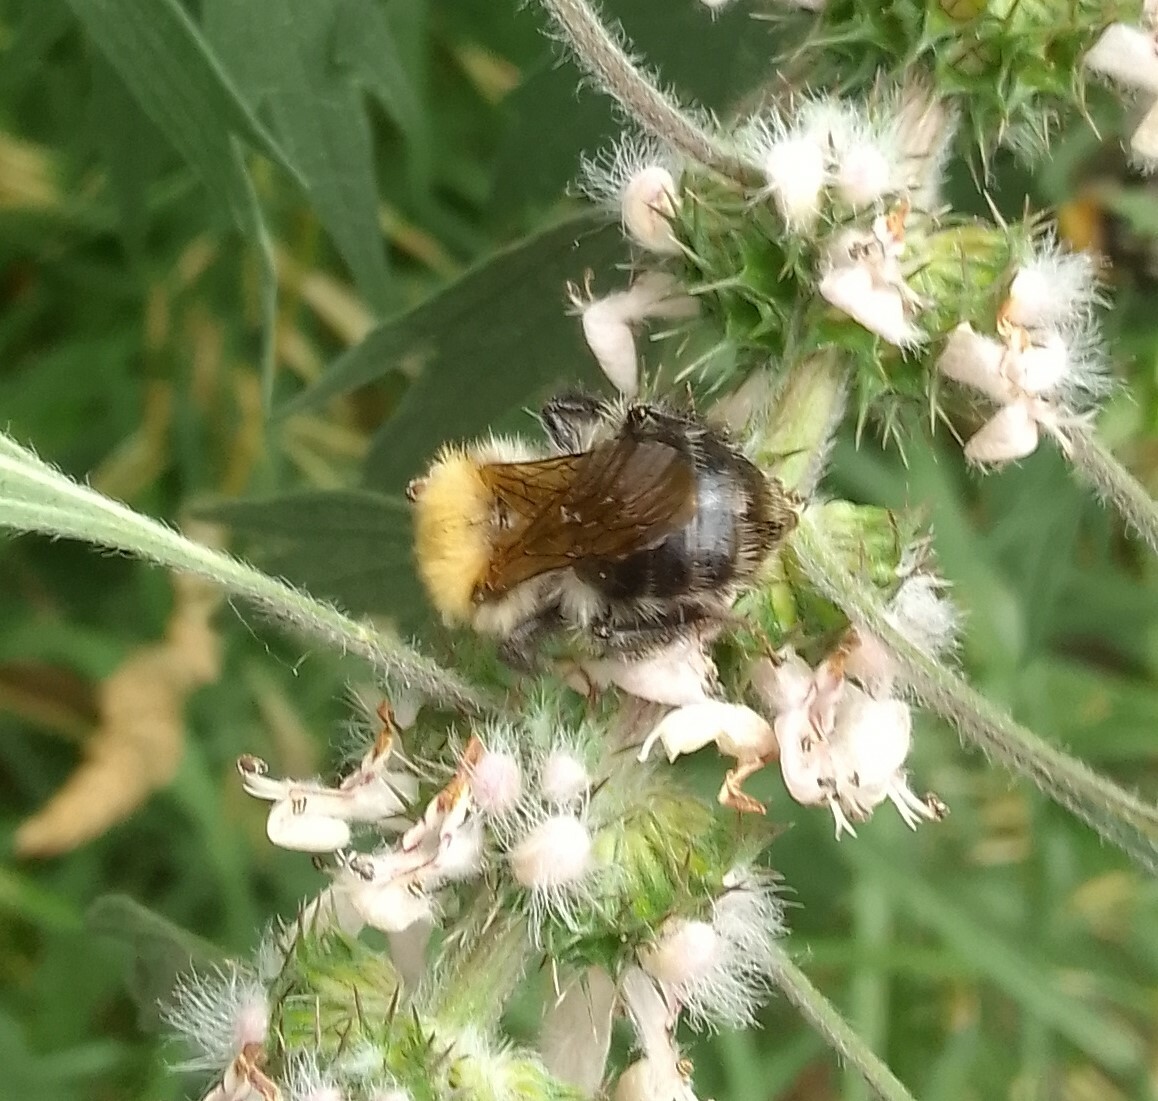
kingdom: Animalia
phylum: Arthropoda
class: Insecta
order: Hymenoptera
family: Apidae
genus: Bombus
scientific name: Bombus pascuorum
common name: Common carder bee
